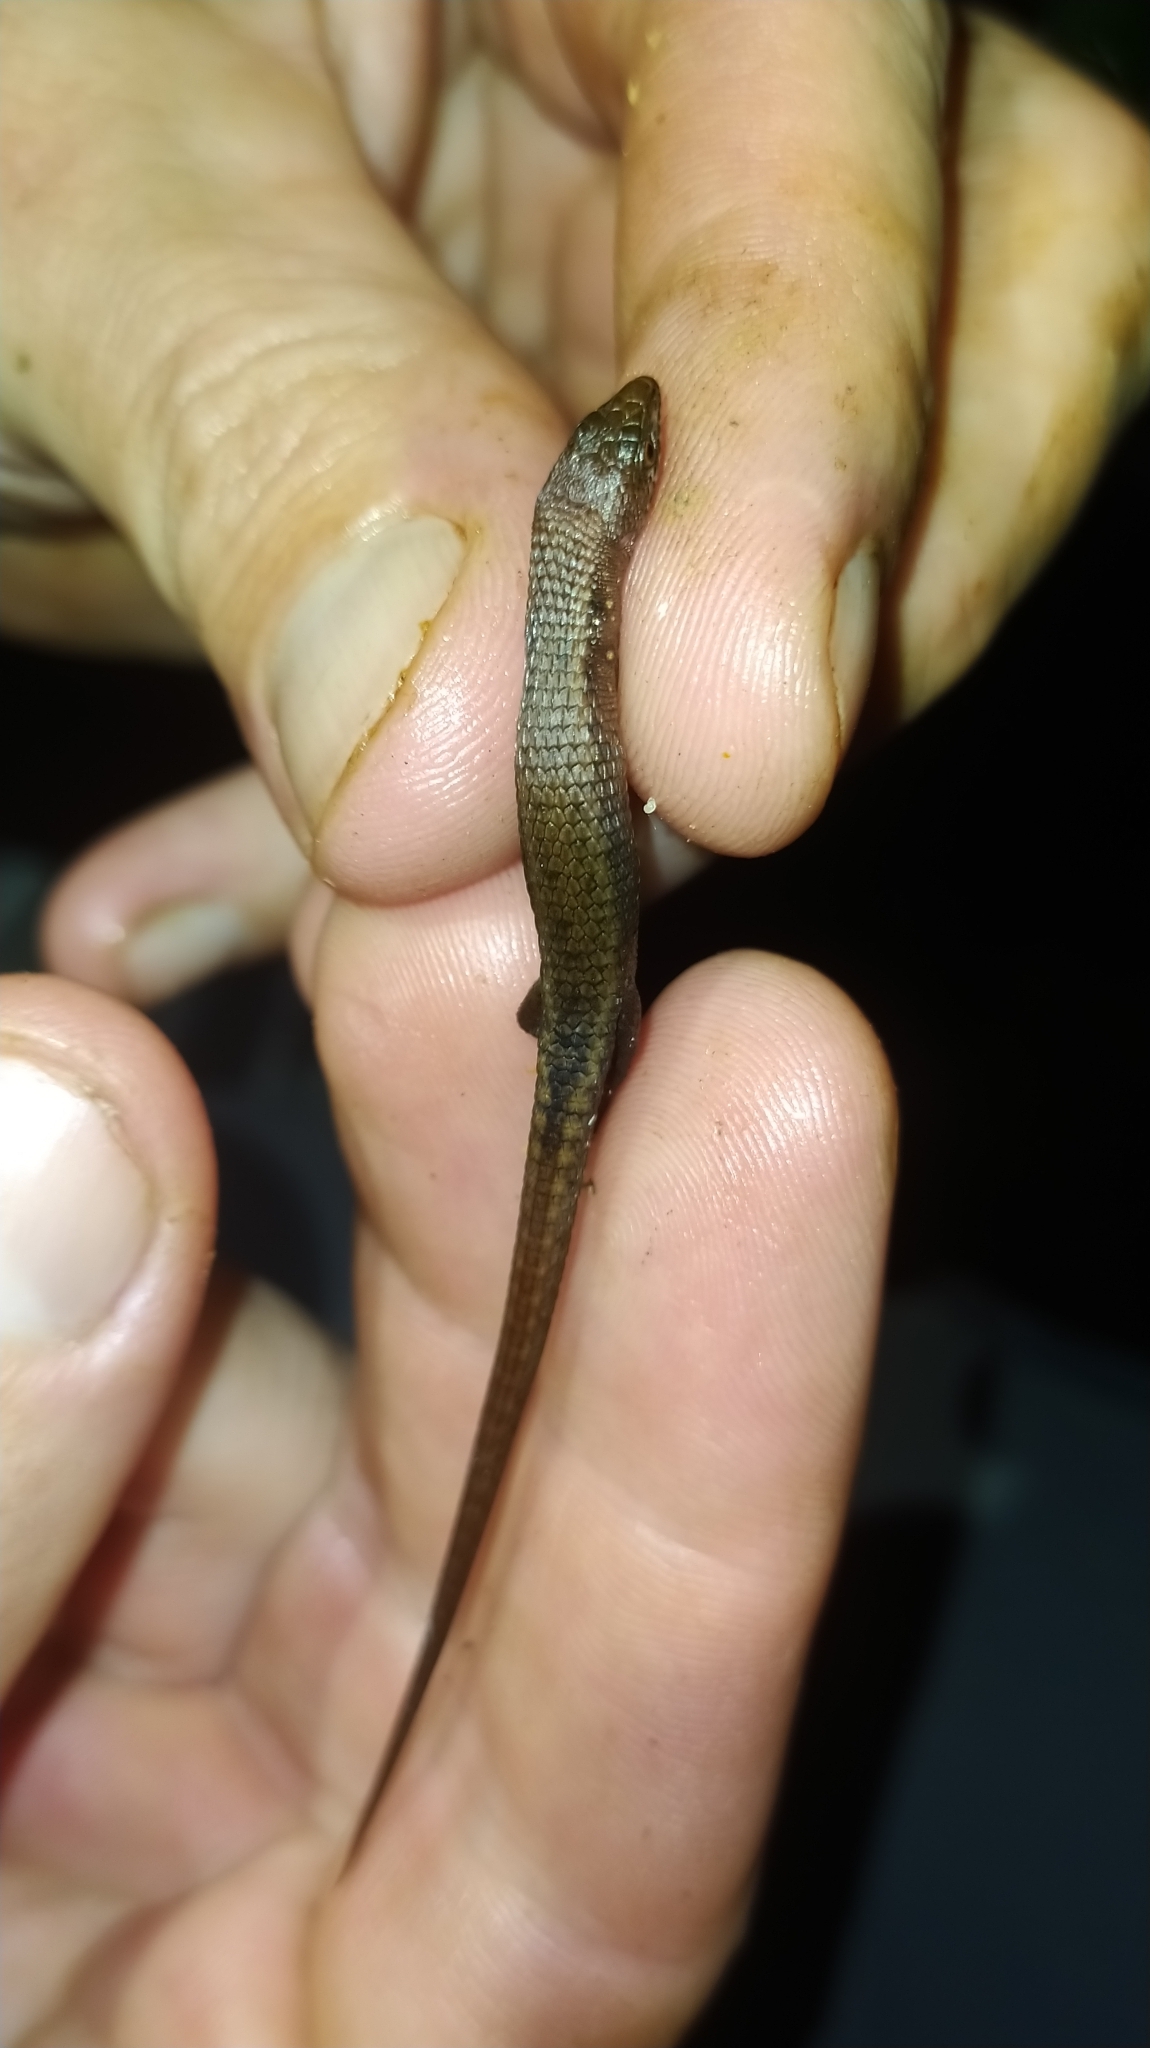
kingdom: Animalia
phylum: Chordata
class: Squamata
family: Gymnophthalmidae
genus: Loxopholis
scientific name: Loxopholis guianense
